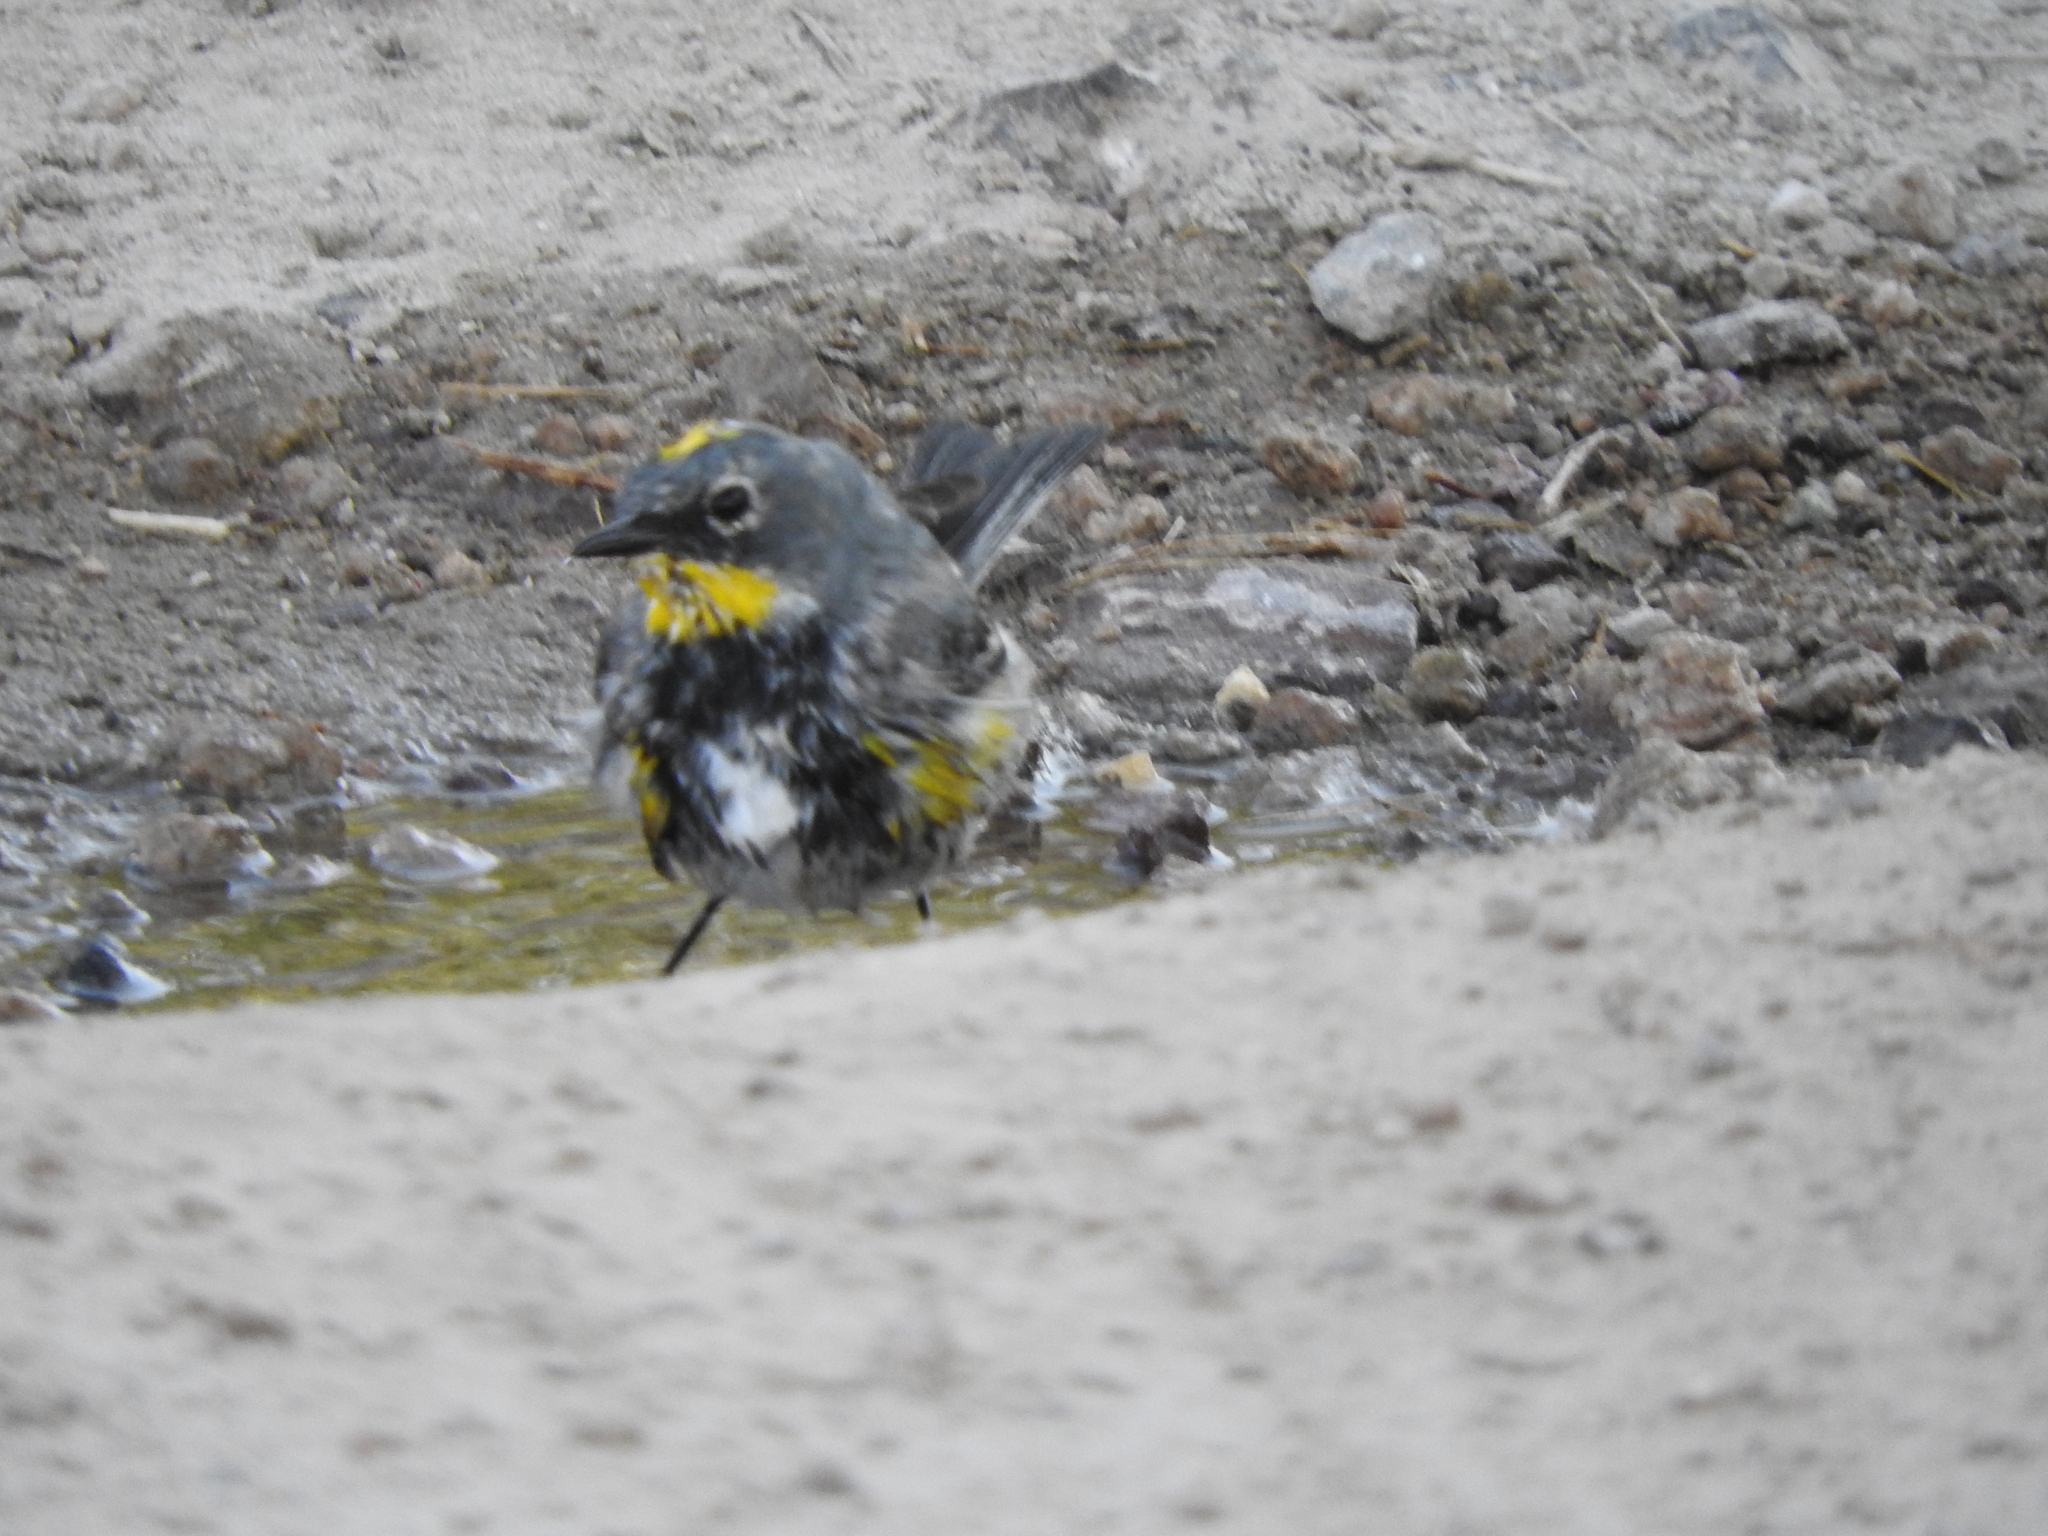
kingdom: Animalia
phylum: Chordata
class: Aves
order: Passeriformes
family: Parulidae
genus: Setophaga
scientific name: Setophaga coronata
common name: Myrtle warbler
